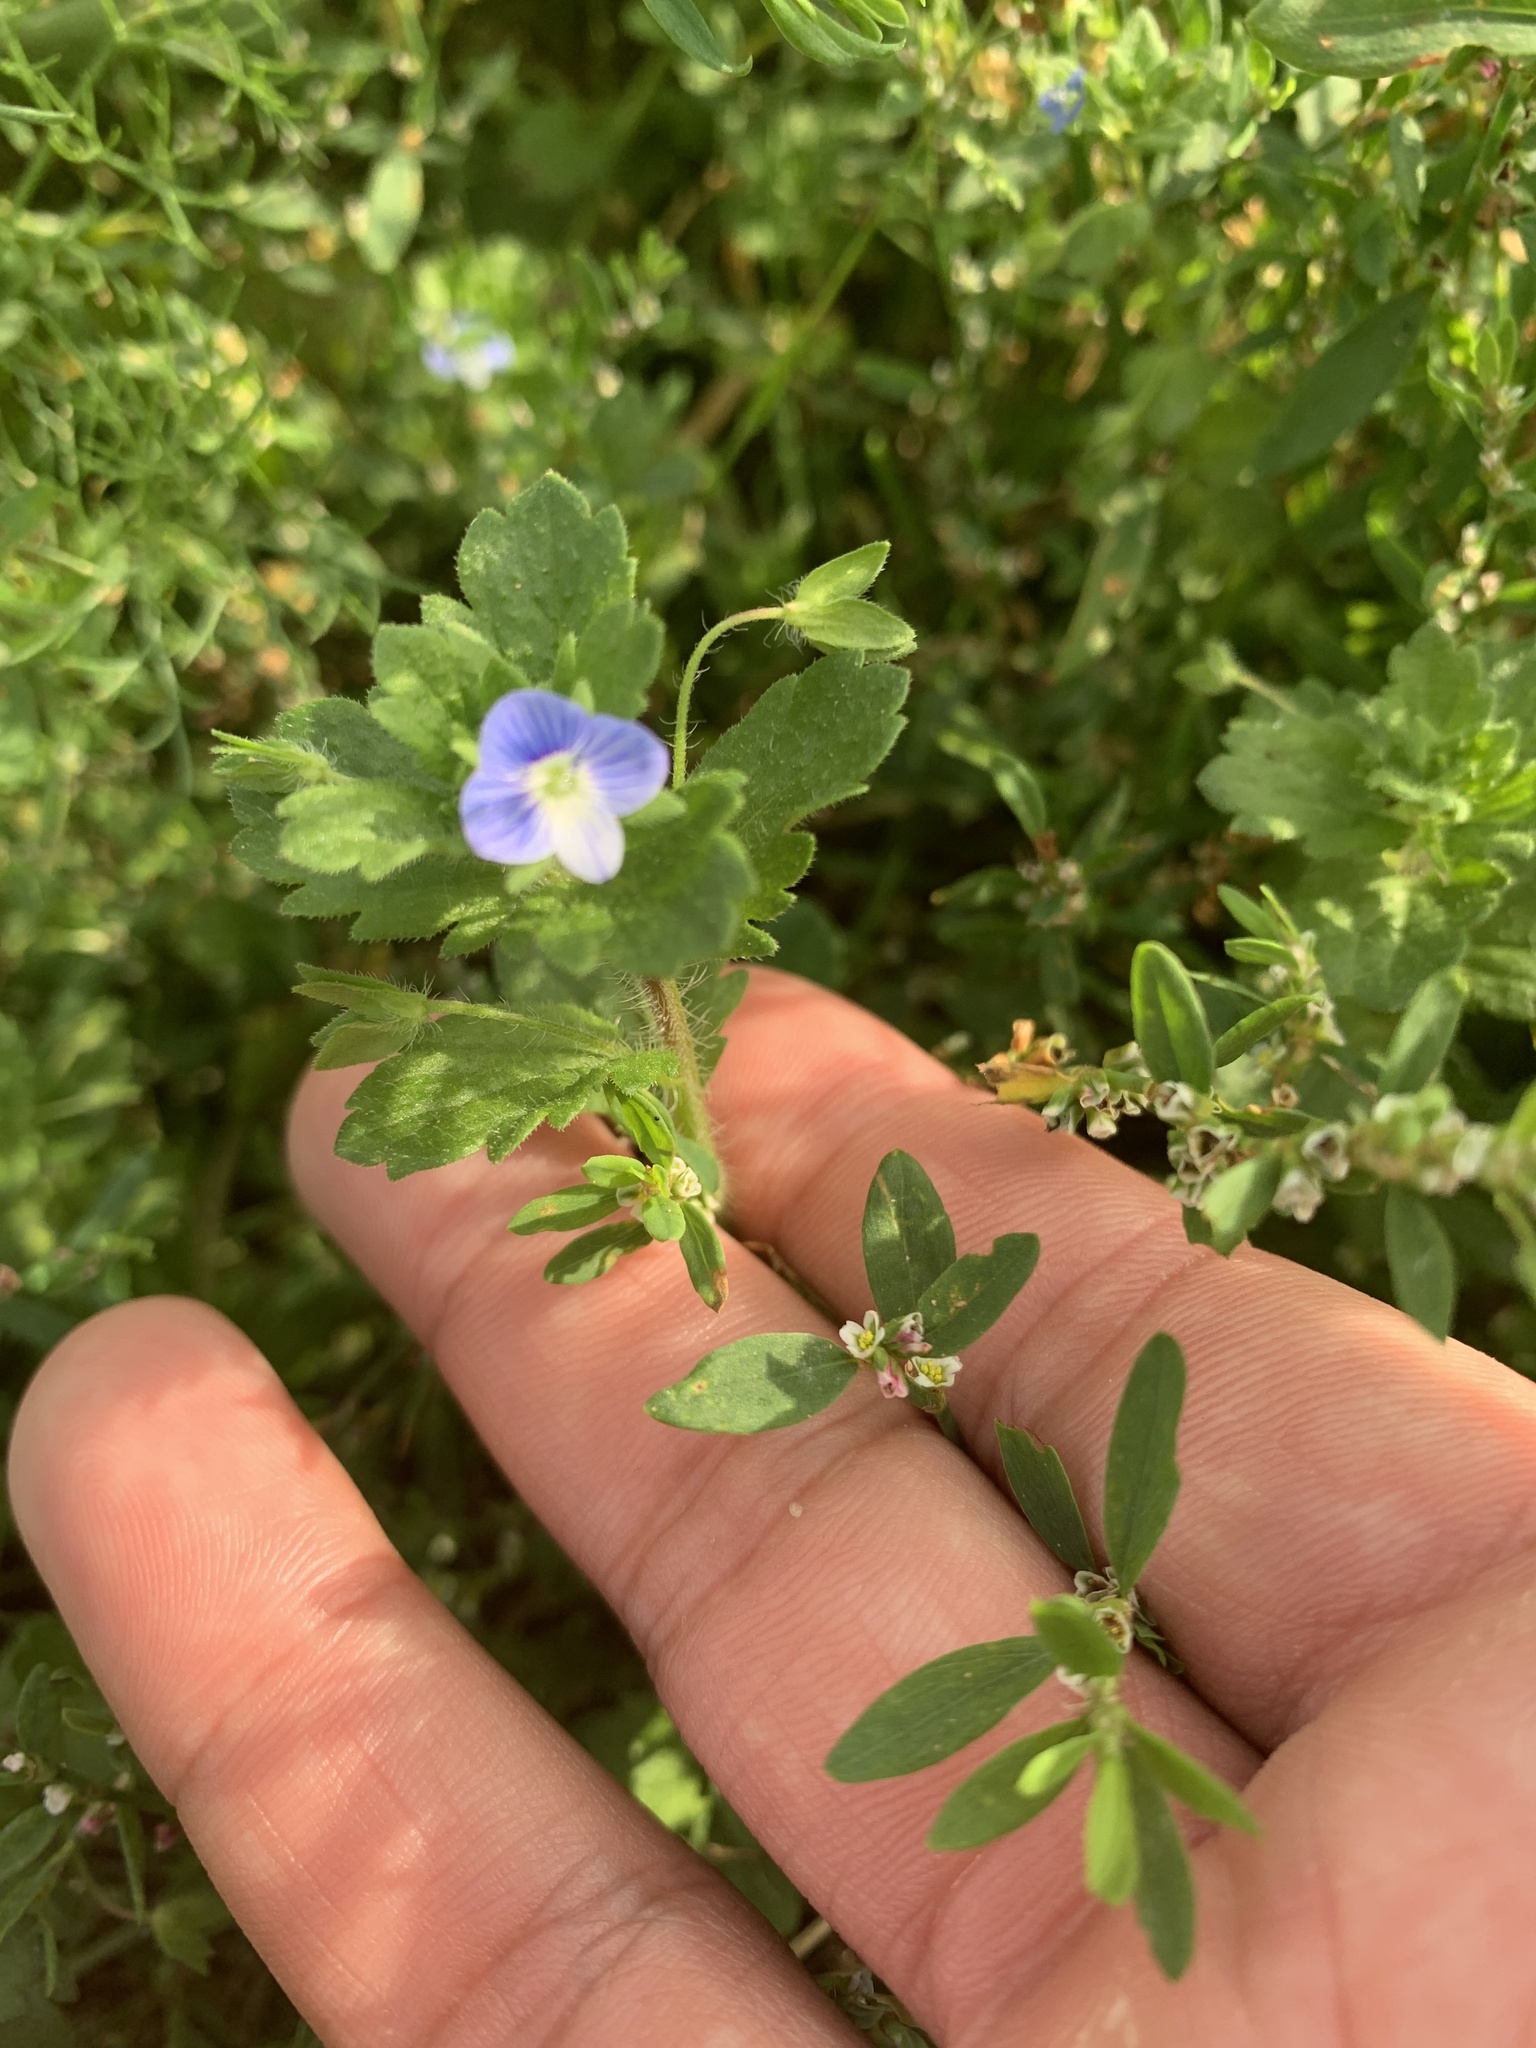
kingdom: Plantae
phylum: Tracheophyta
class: Magnoliopsida
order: Lamiales
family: Plantaginaceae
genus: Veronica
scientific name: Veronica persica
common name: Common field-speedwell
